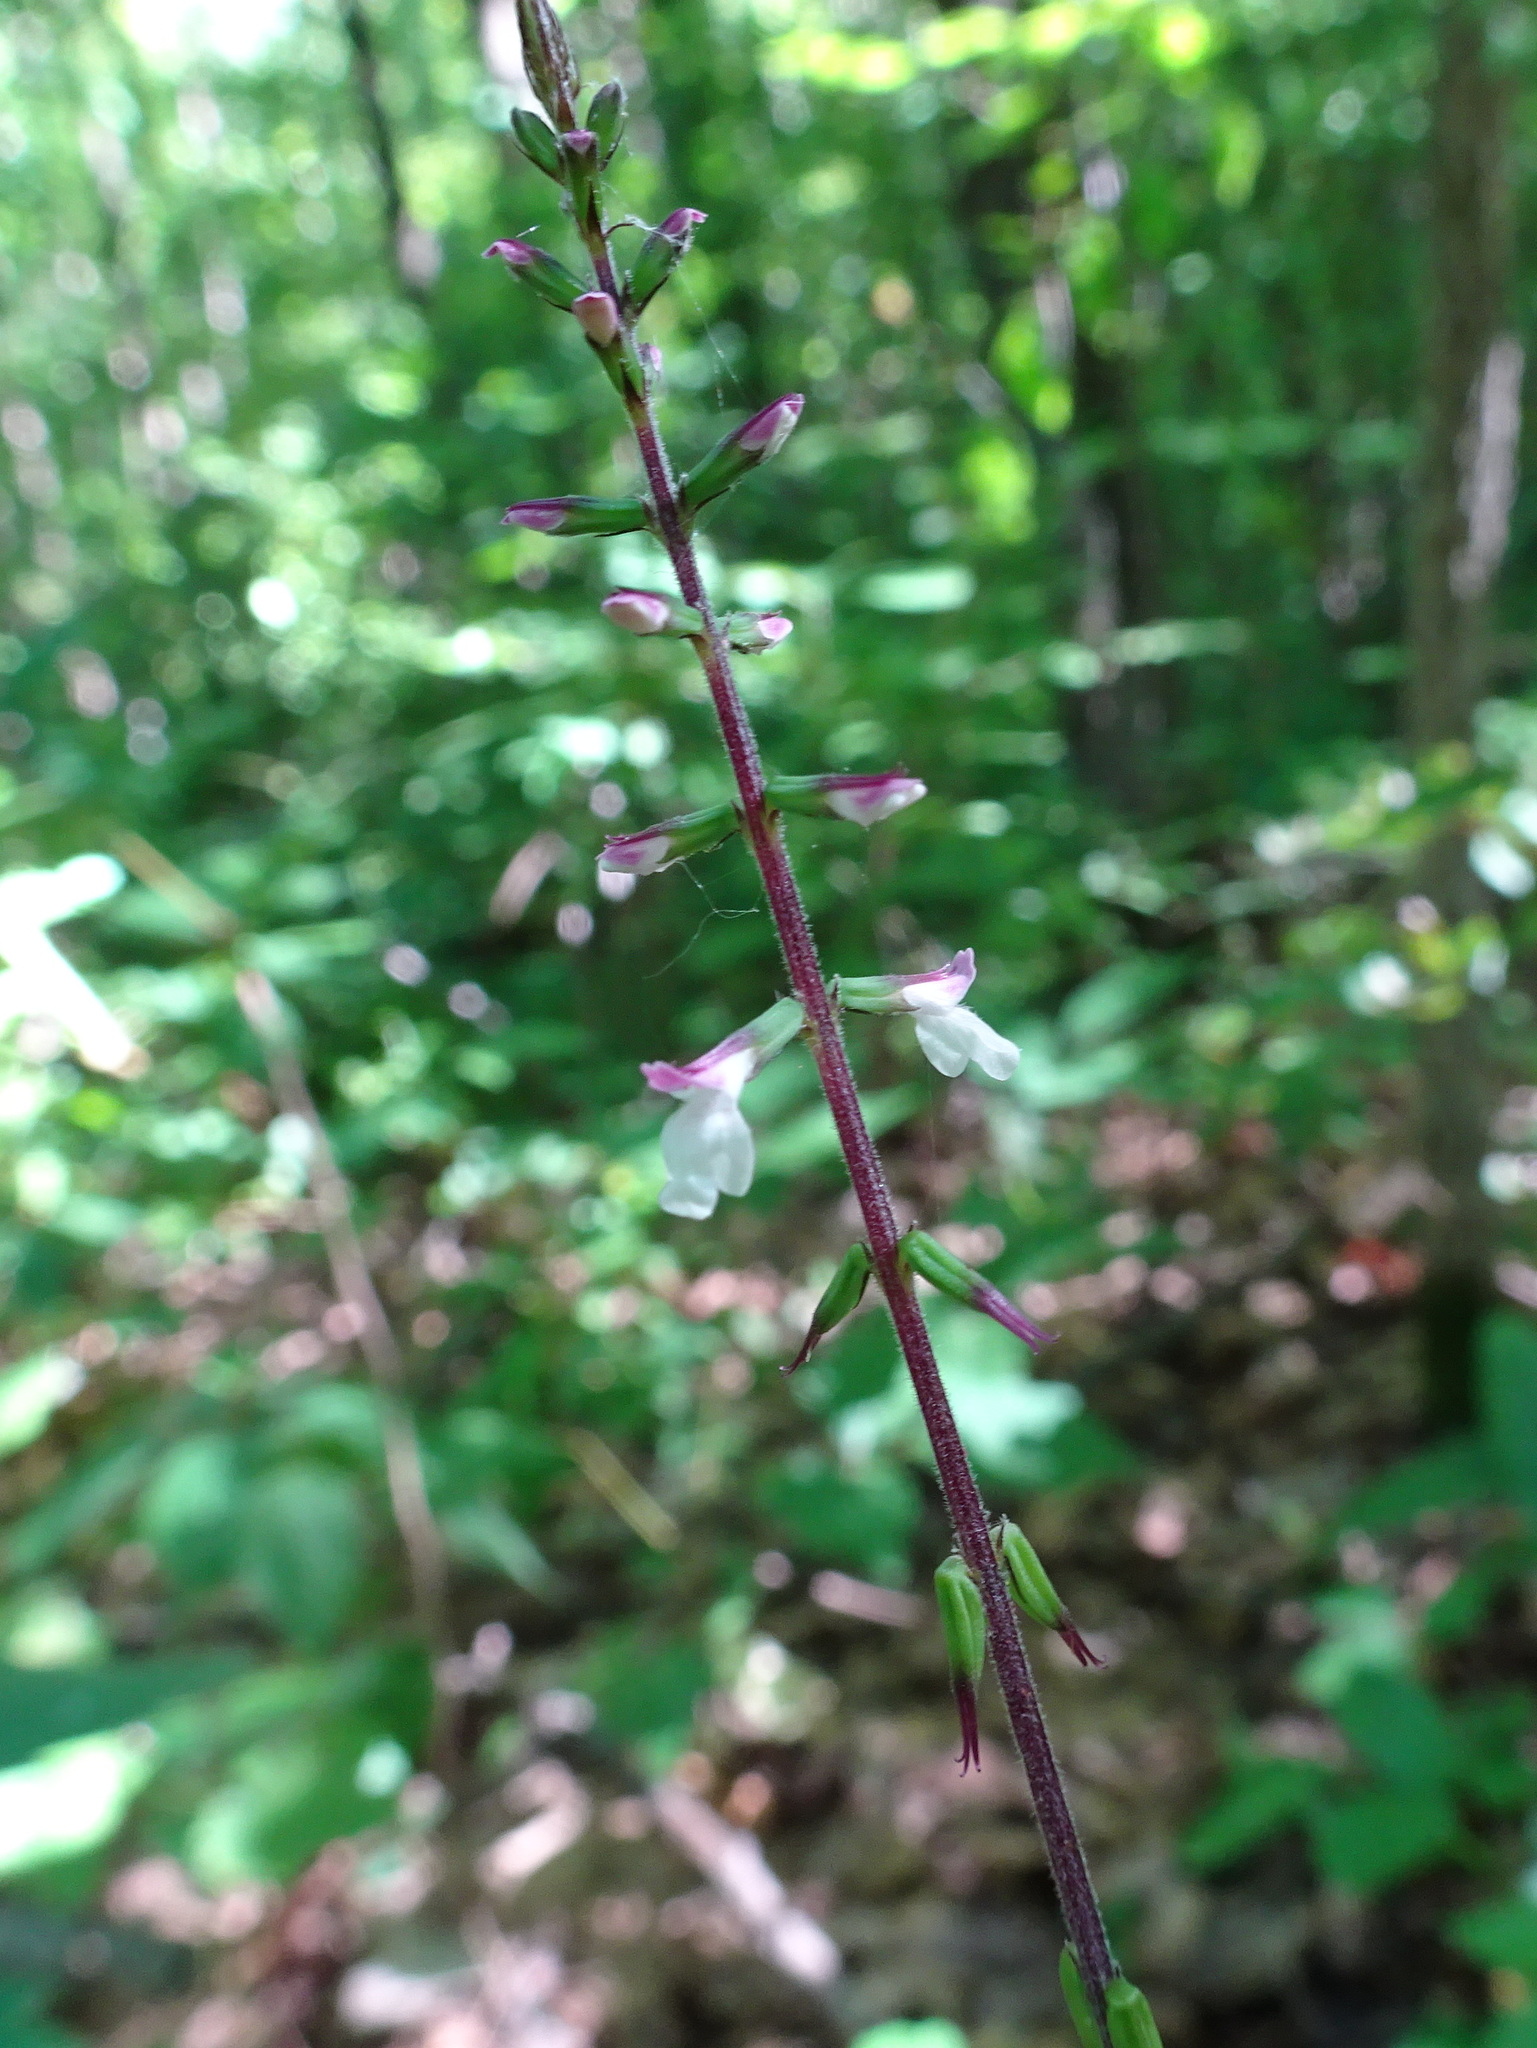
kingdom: Plantae
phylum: Tracheophyta
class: Magnoliopsida
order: Lamiales
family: Phrymaceae
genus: Phryma
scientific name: Phryma leptostachya
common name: American lopseed
